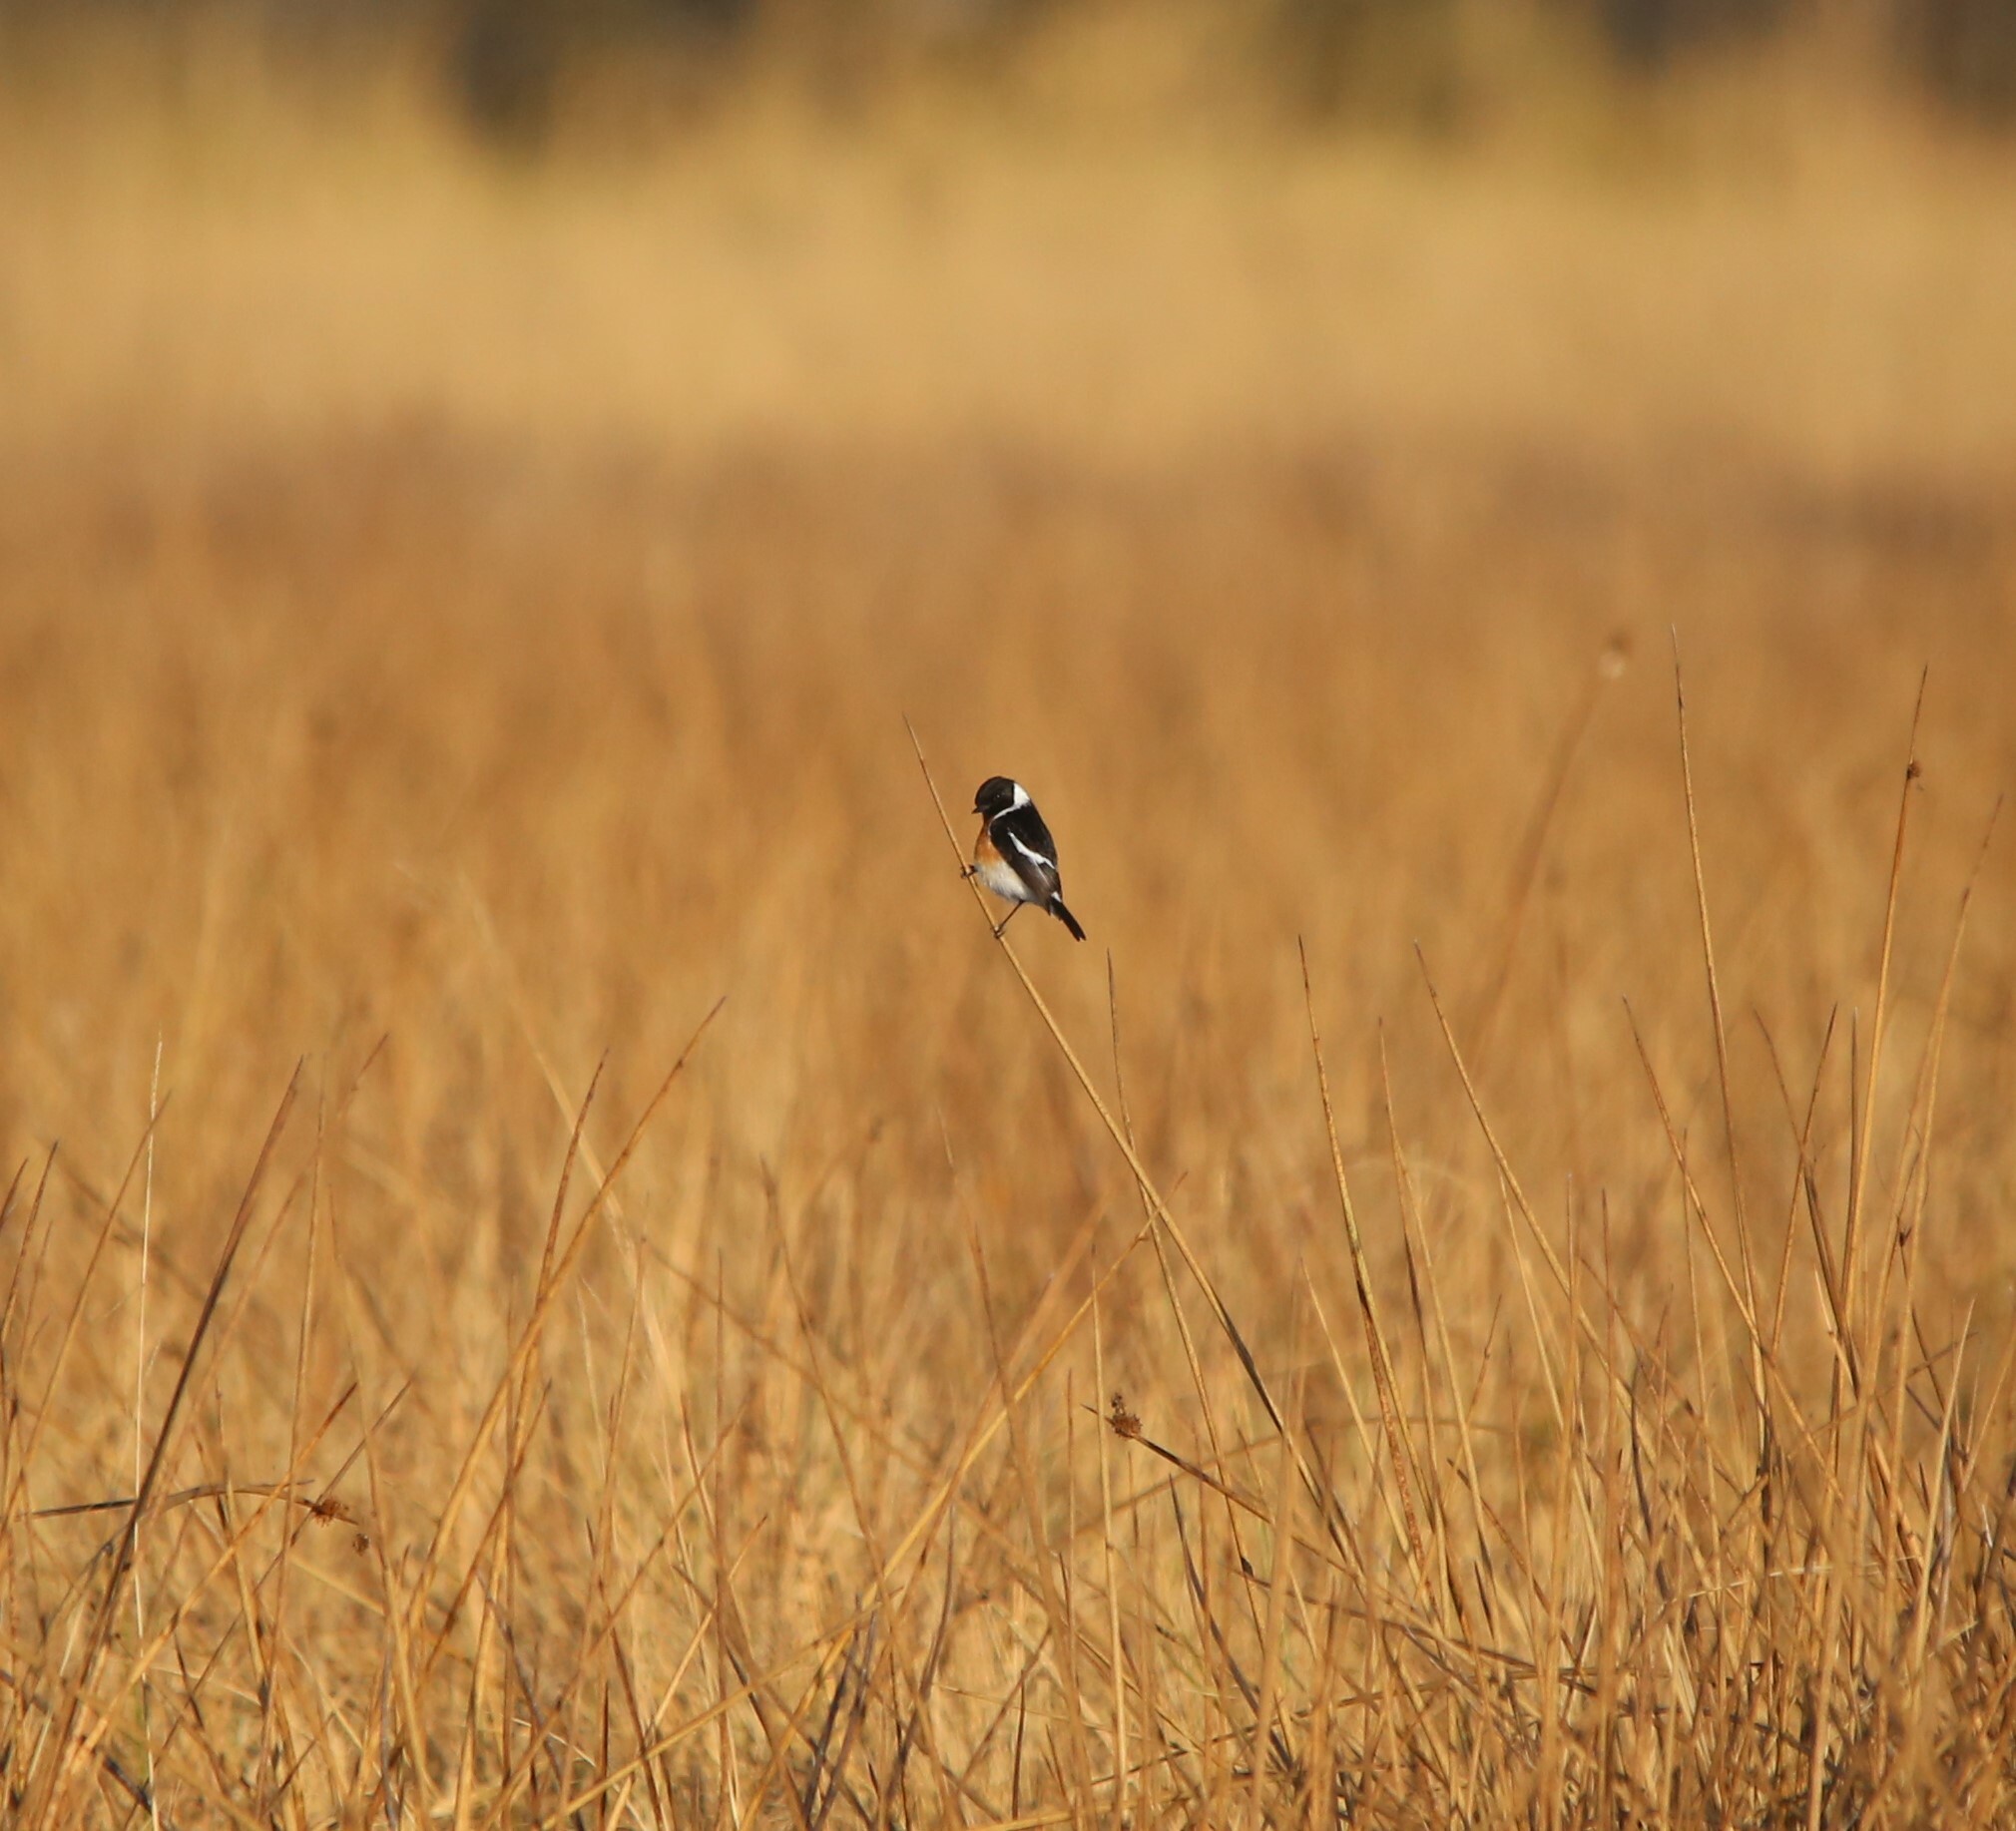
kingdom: Animalia
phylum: Chordata
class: Aves
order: Passeriformes
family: Muscicapidae
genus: Saxicola
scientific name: Saxicola torquatus
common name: African stonechat
